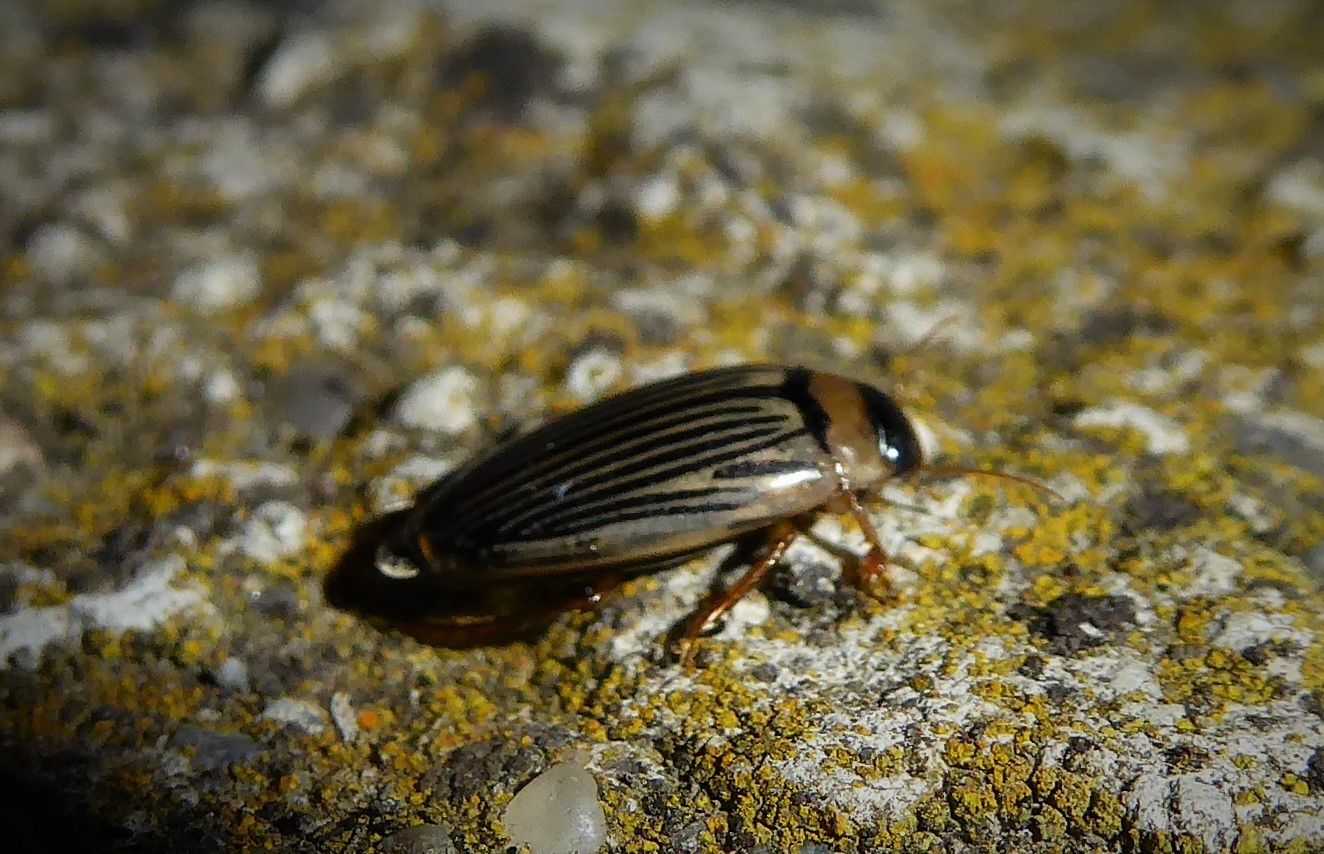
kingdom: Animalia
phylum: Arthropoda
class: Insecta
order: Coleoptera
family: Dytiscidae
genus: Lancetes
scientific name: Lancetes lanceolatus
